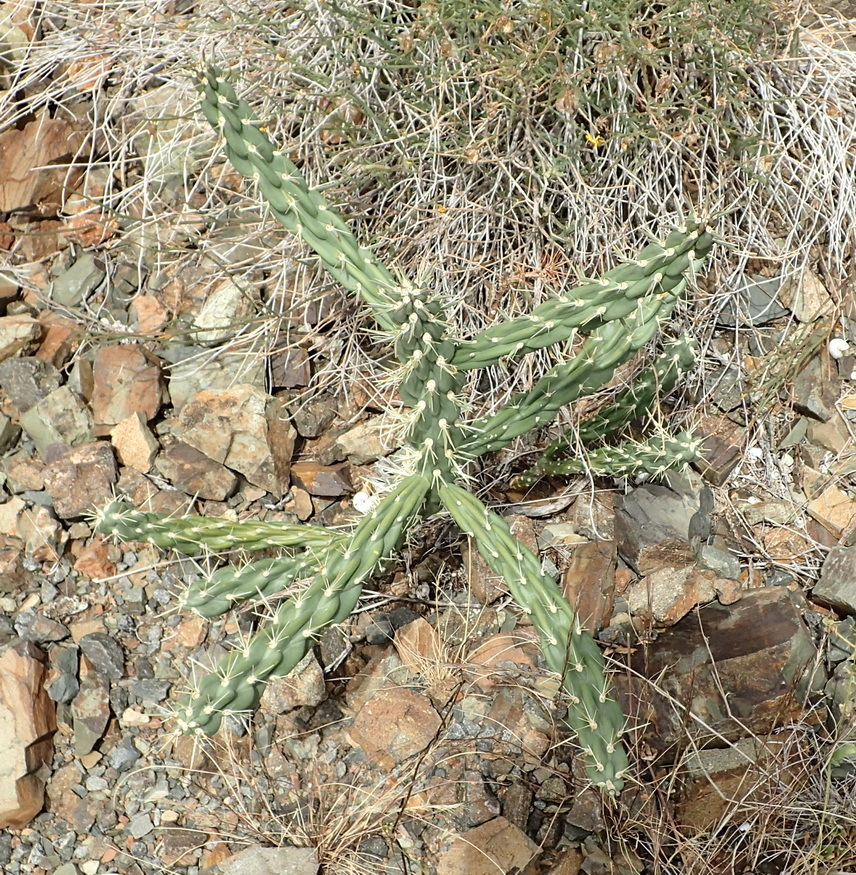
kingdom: Plantae
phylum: Tracheophyta
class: Magnoliopsida
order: Caryophyllales
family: Cactaceae
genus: Cylindropuntia
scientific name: Cylindropuntia imbricata
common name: Candelabrum cactus
